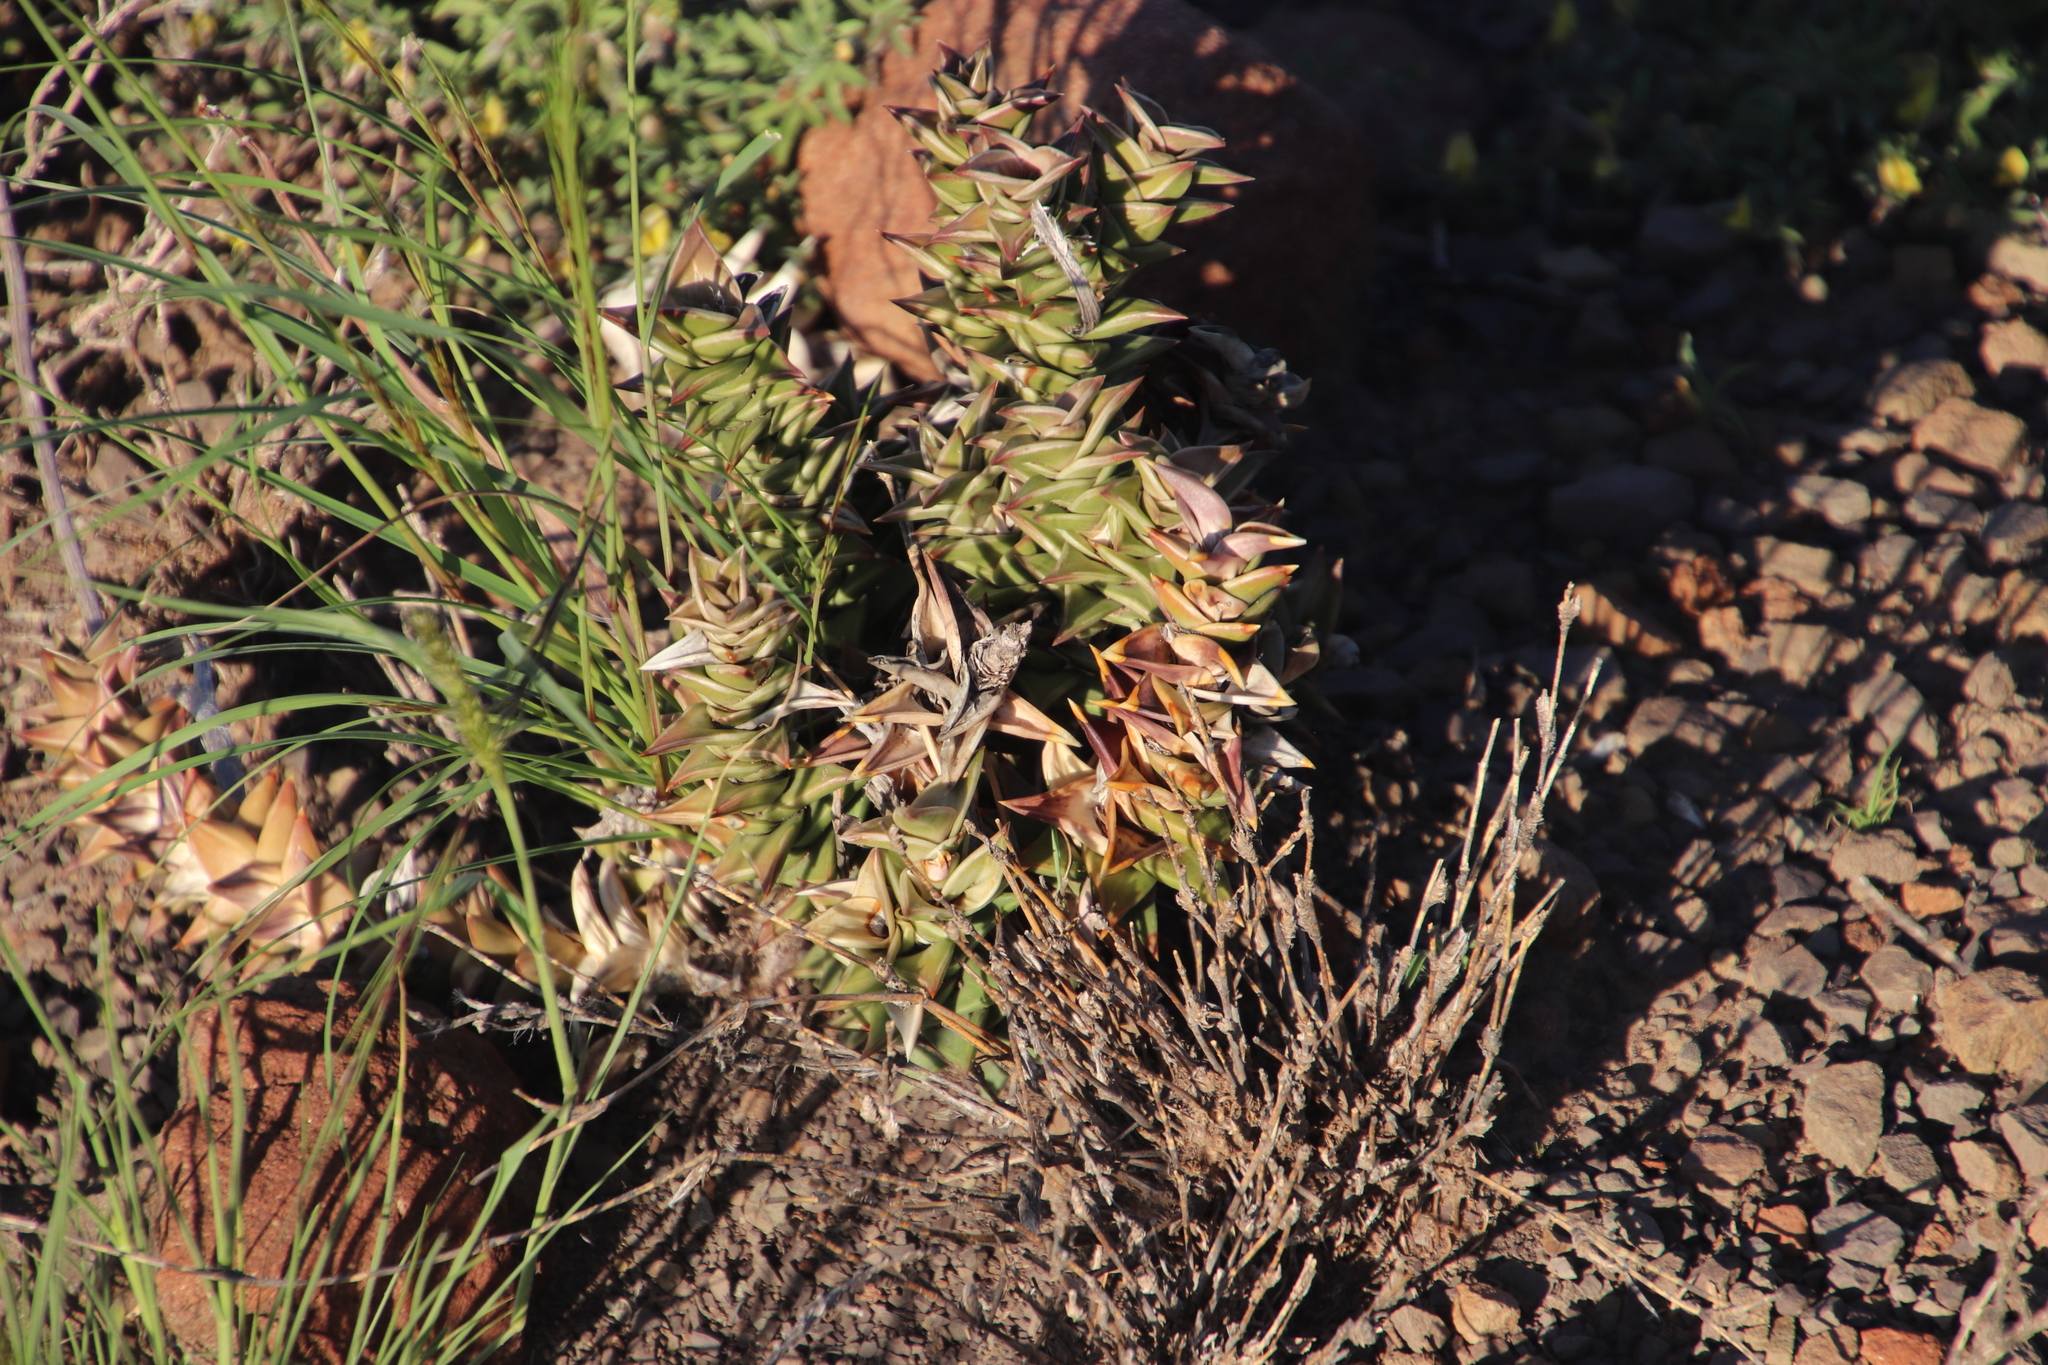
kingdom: Plantae
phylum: Tracheophyta
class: Liliopsida
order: Asparagales
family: Asphodelaceae
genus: Astroloba
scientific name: Astroloba robusta
